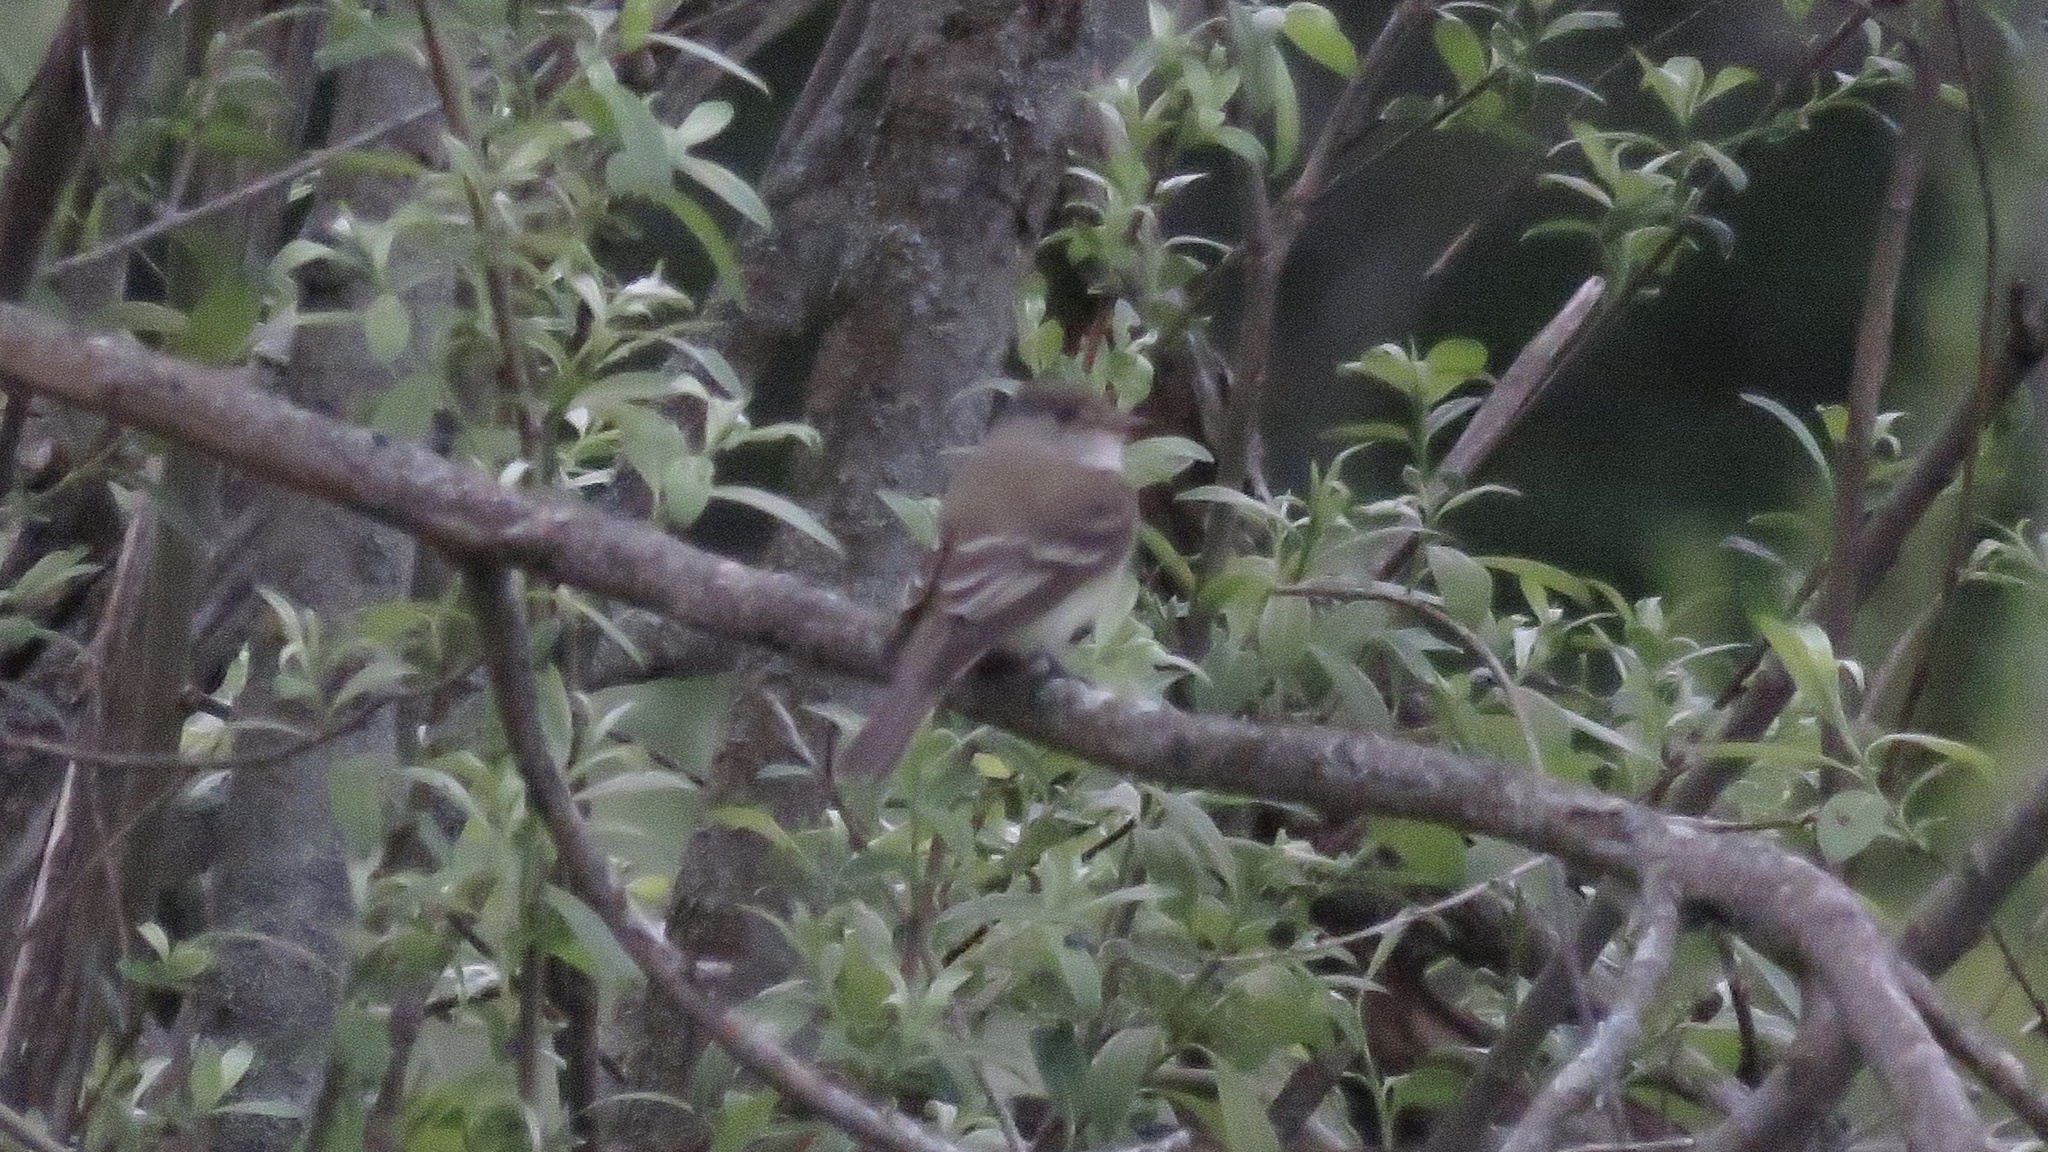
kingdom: Animalia
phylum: Chordata
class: Aves
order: Passeriformes
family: Tyrannidae
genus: Empidonax
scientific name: Empidonax traillii
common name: Willow flycatcher
